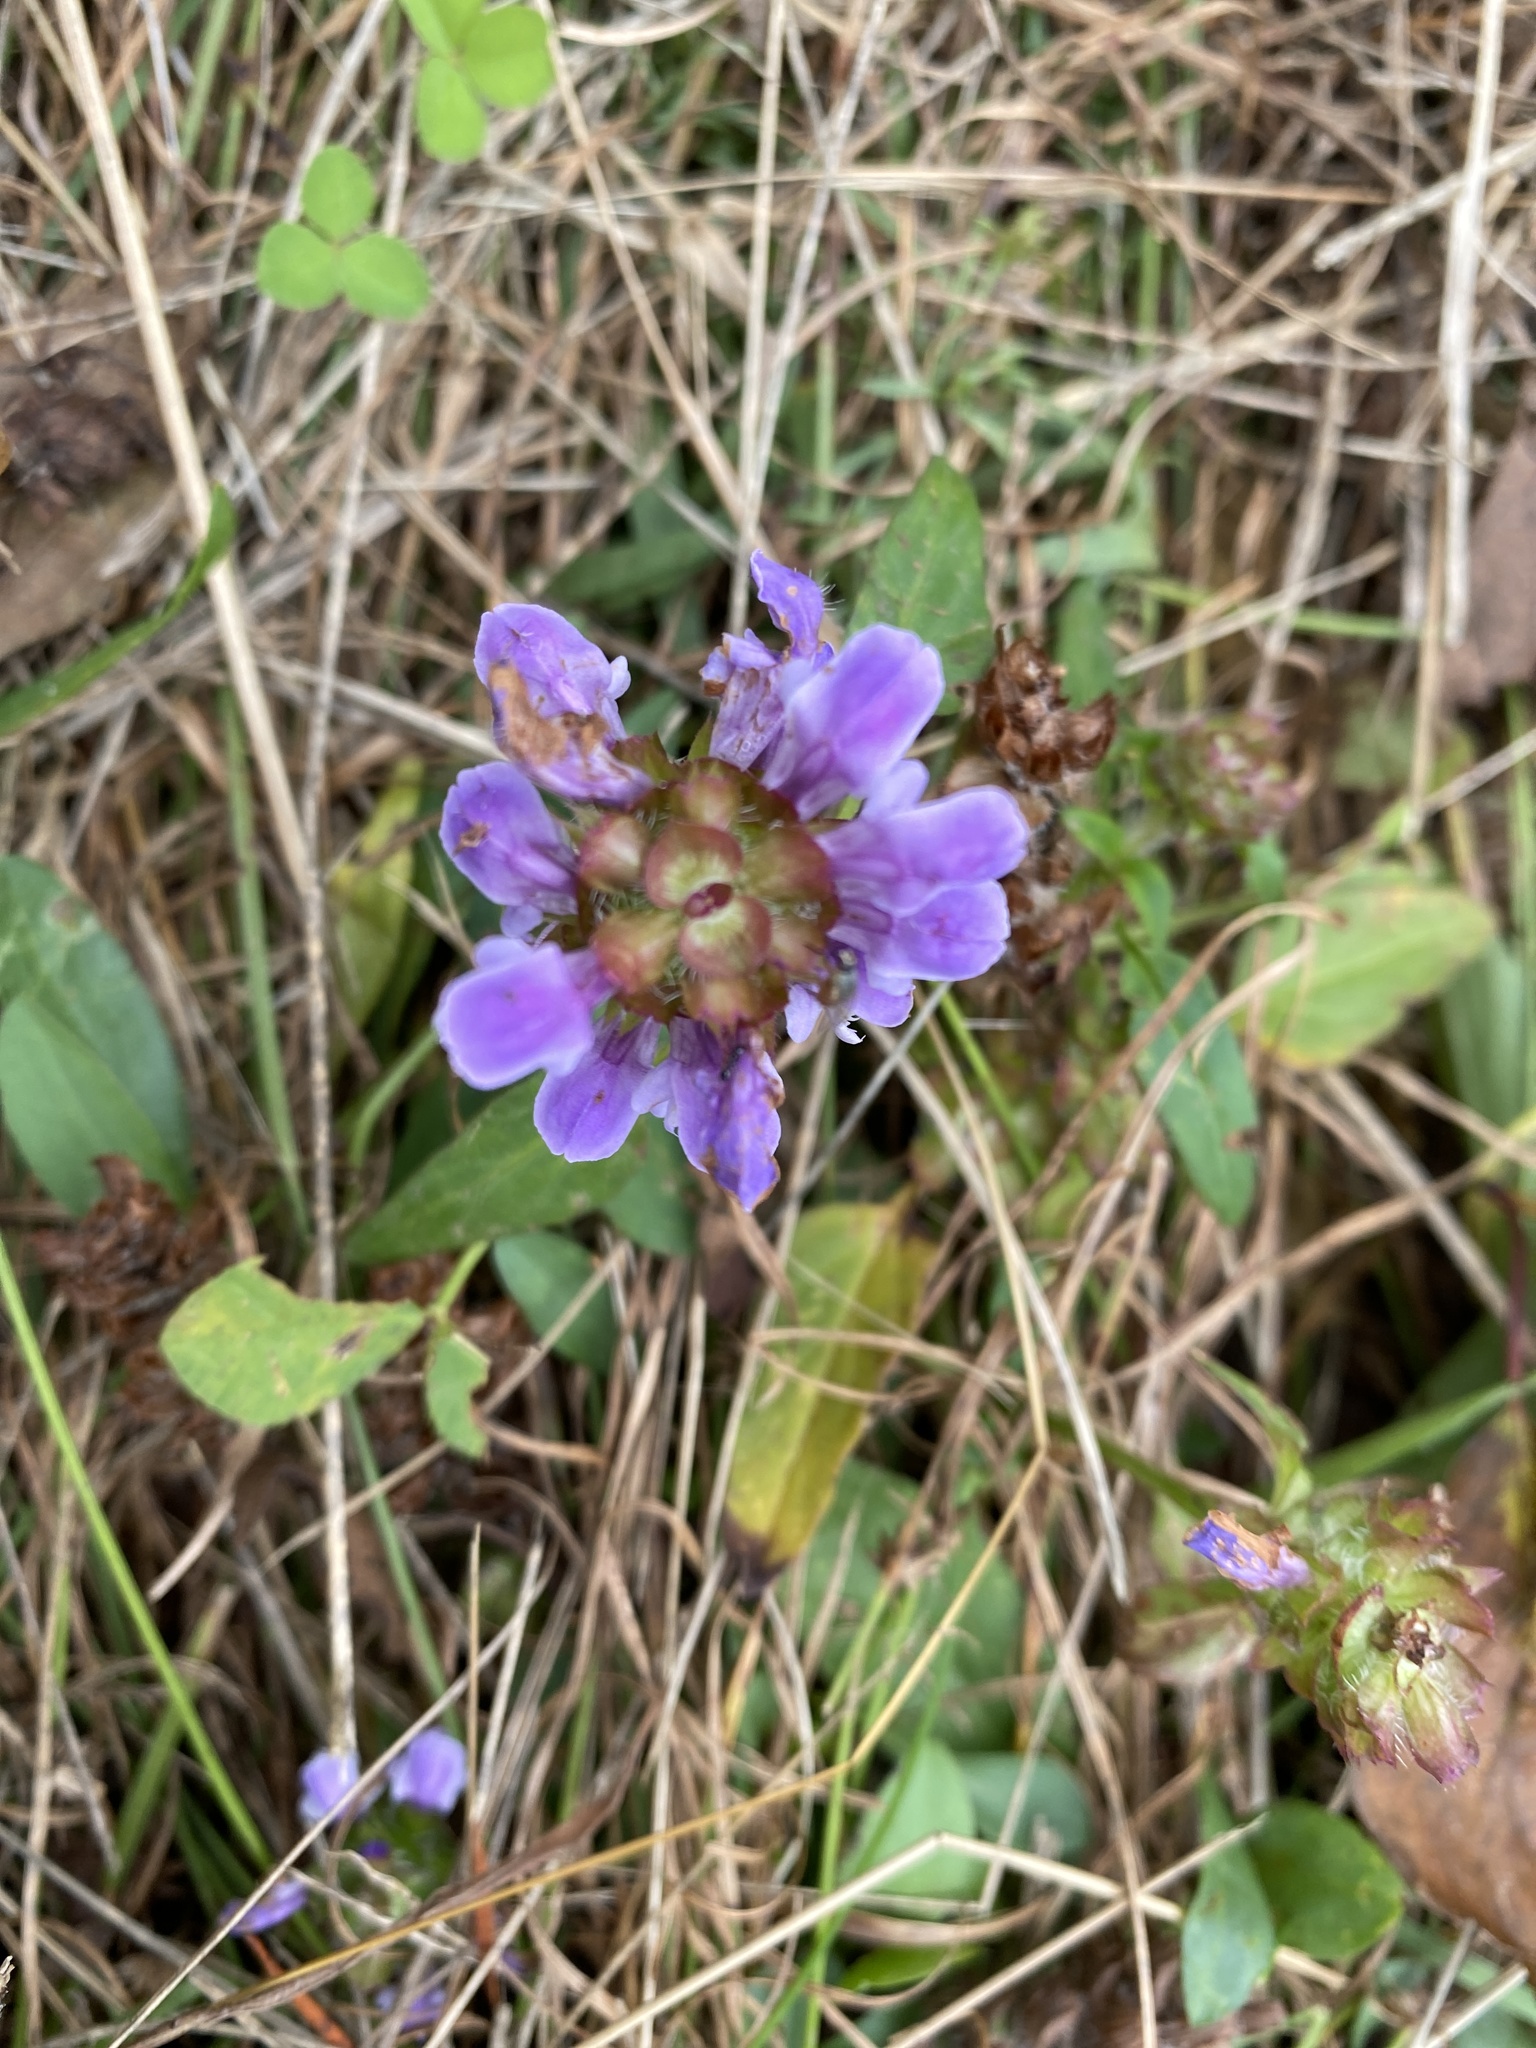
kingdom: Plantae
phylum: Tracheophyta
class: Magnoliopsida
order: Lamiales
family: Lamiaceae
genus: Prunella
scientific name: Prunella vulgaris
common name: Heal-all
